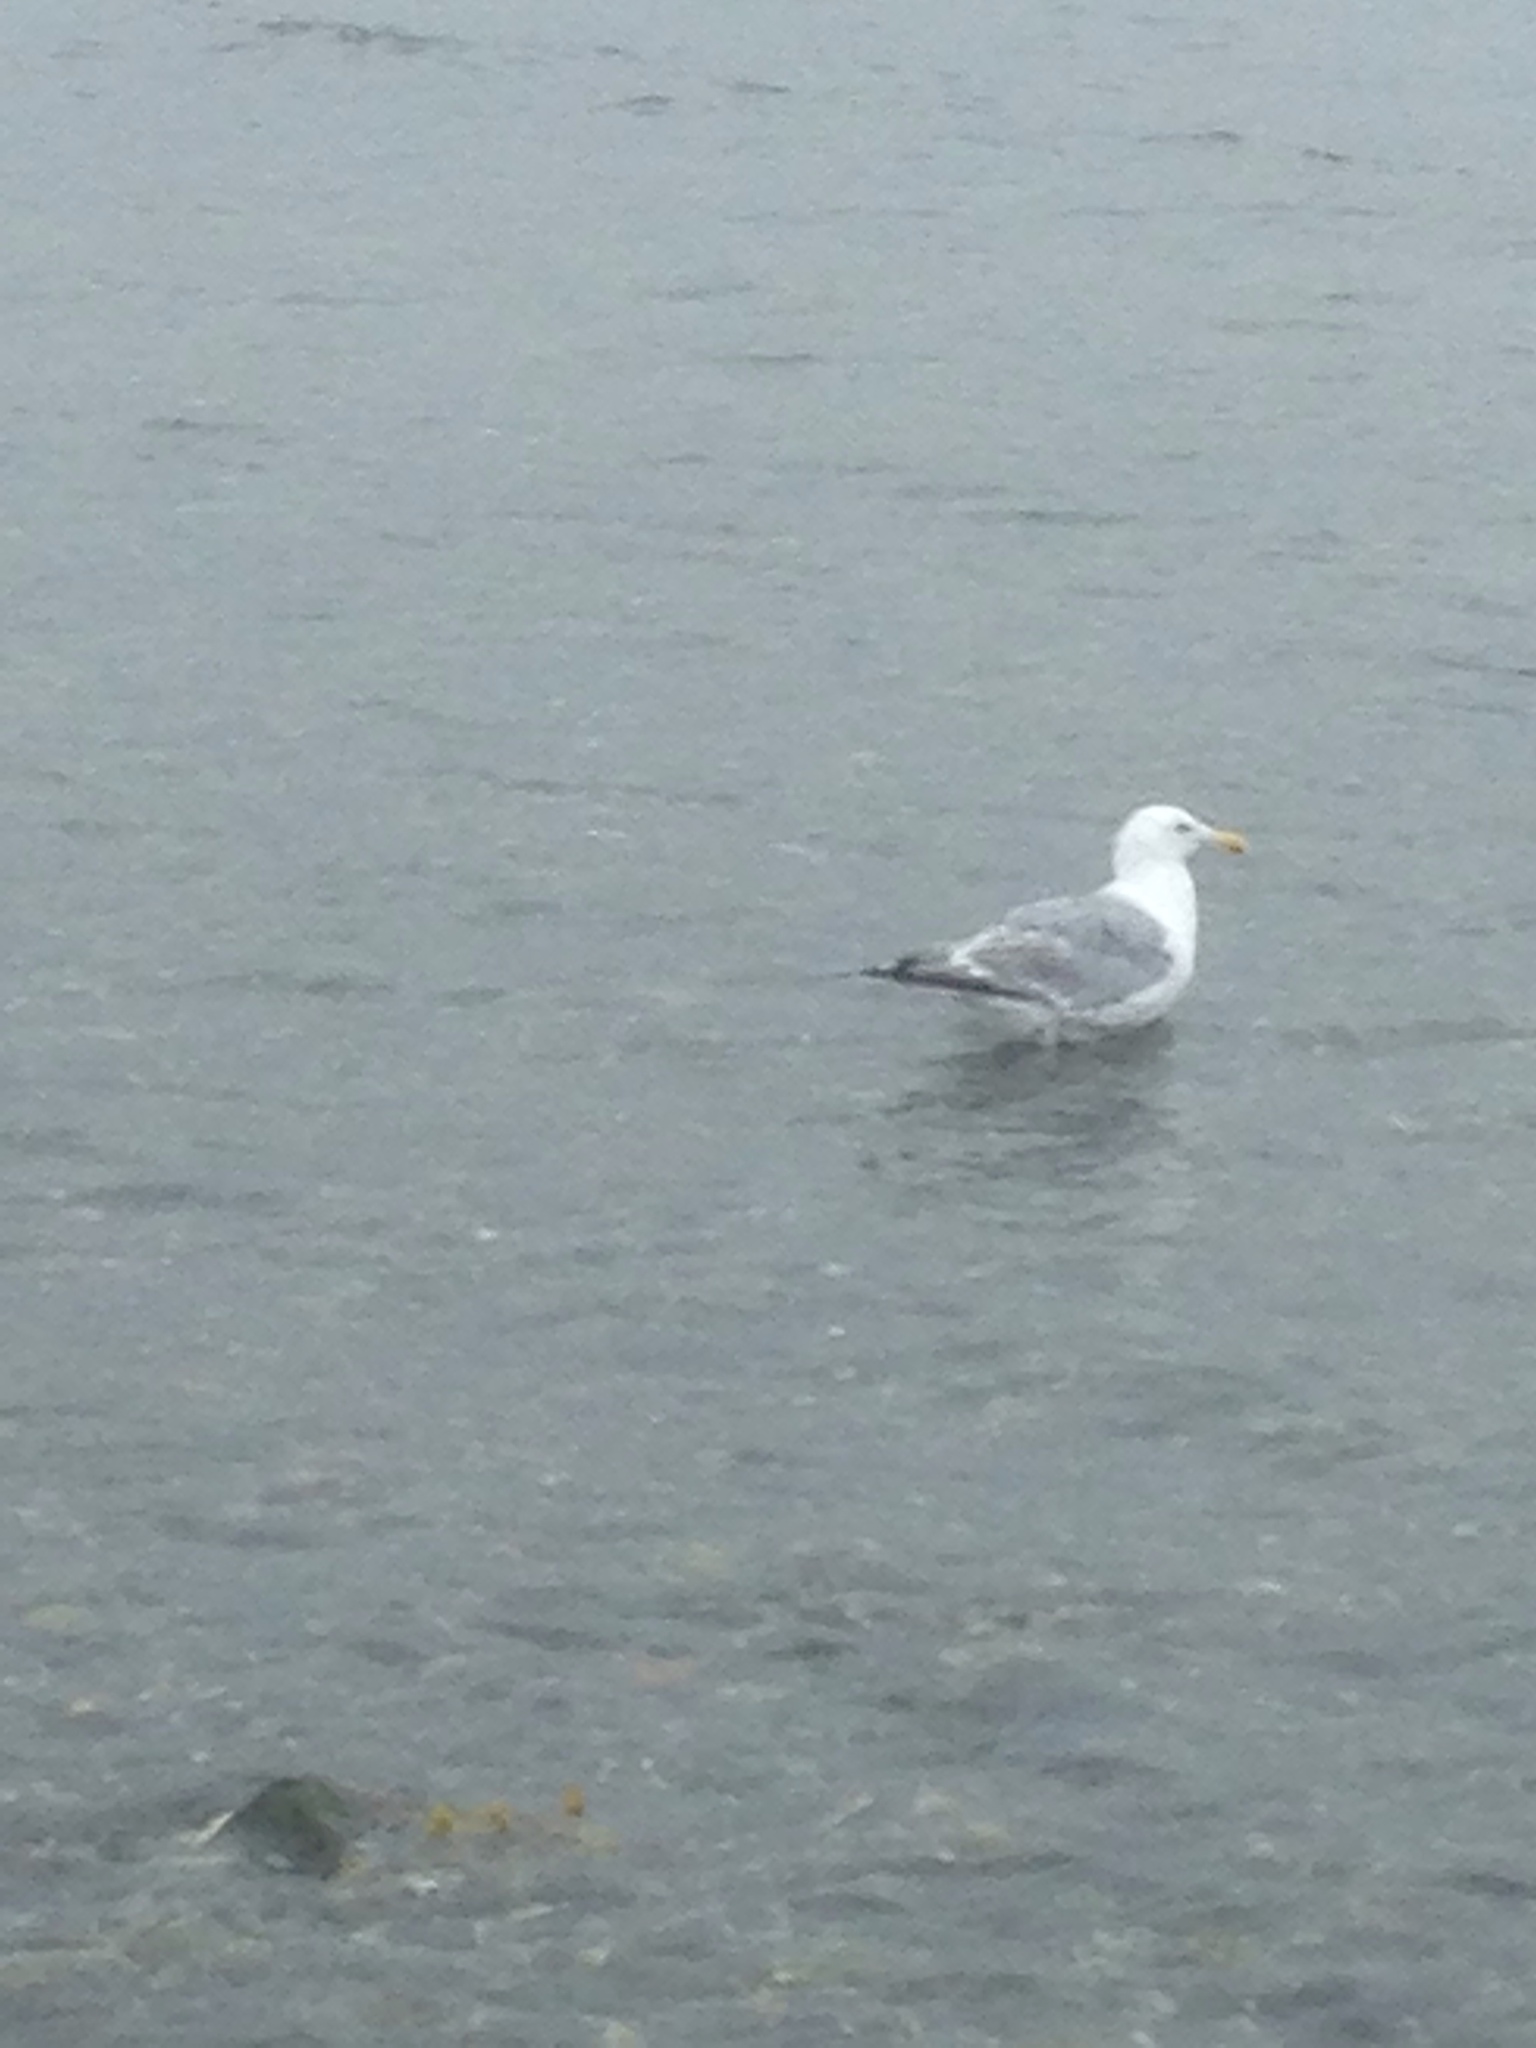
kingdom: Animalia
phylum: Chordata
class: Aves
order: Charadriiformes
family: Laridae
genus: Larus
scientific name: Larus argentatus
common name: Herring gull
